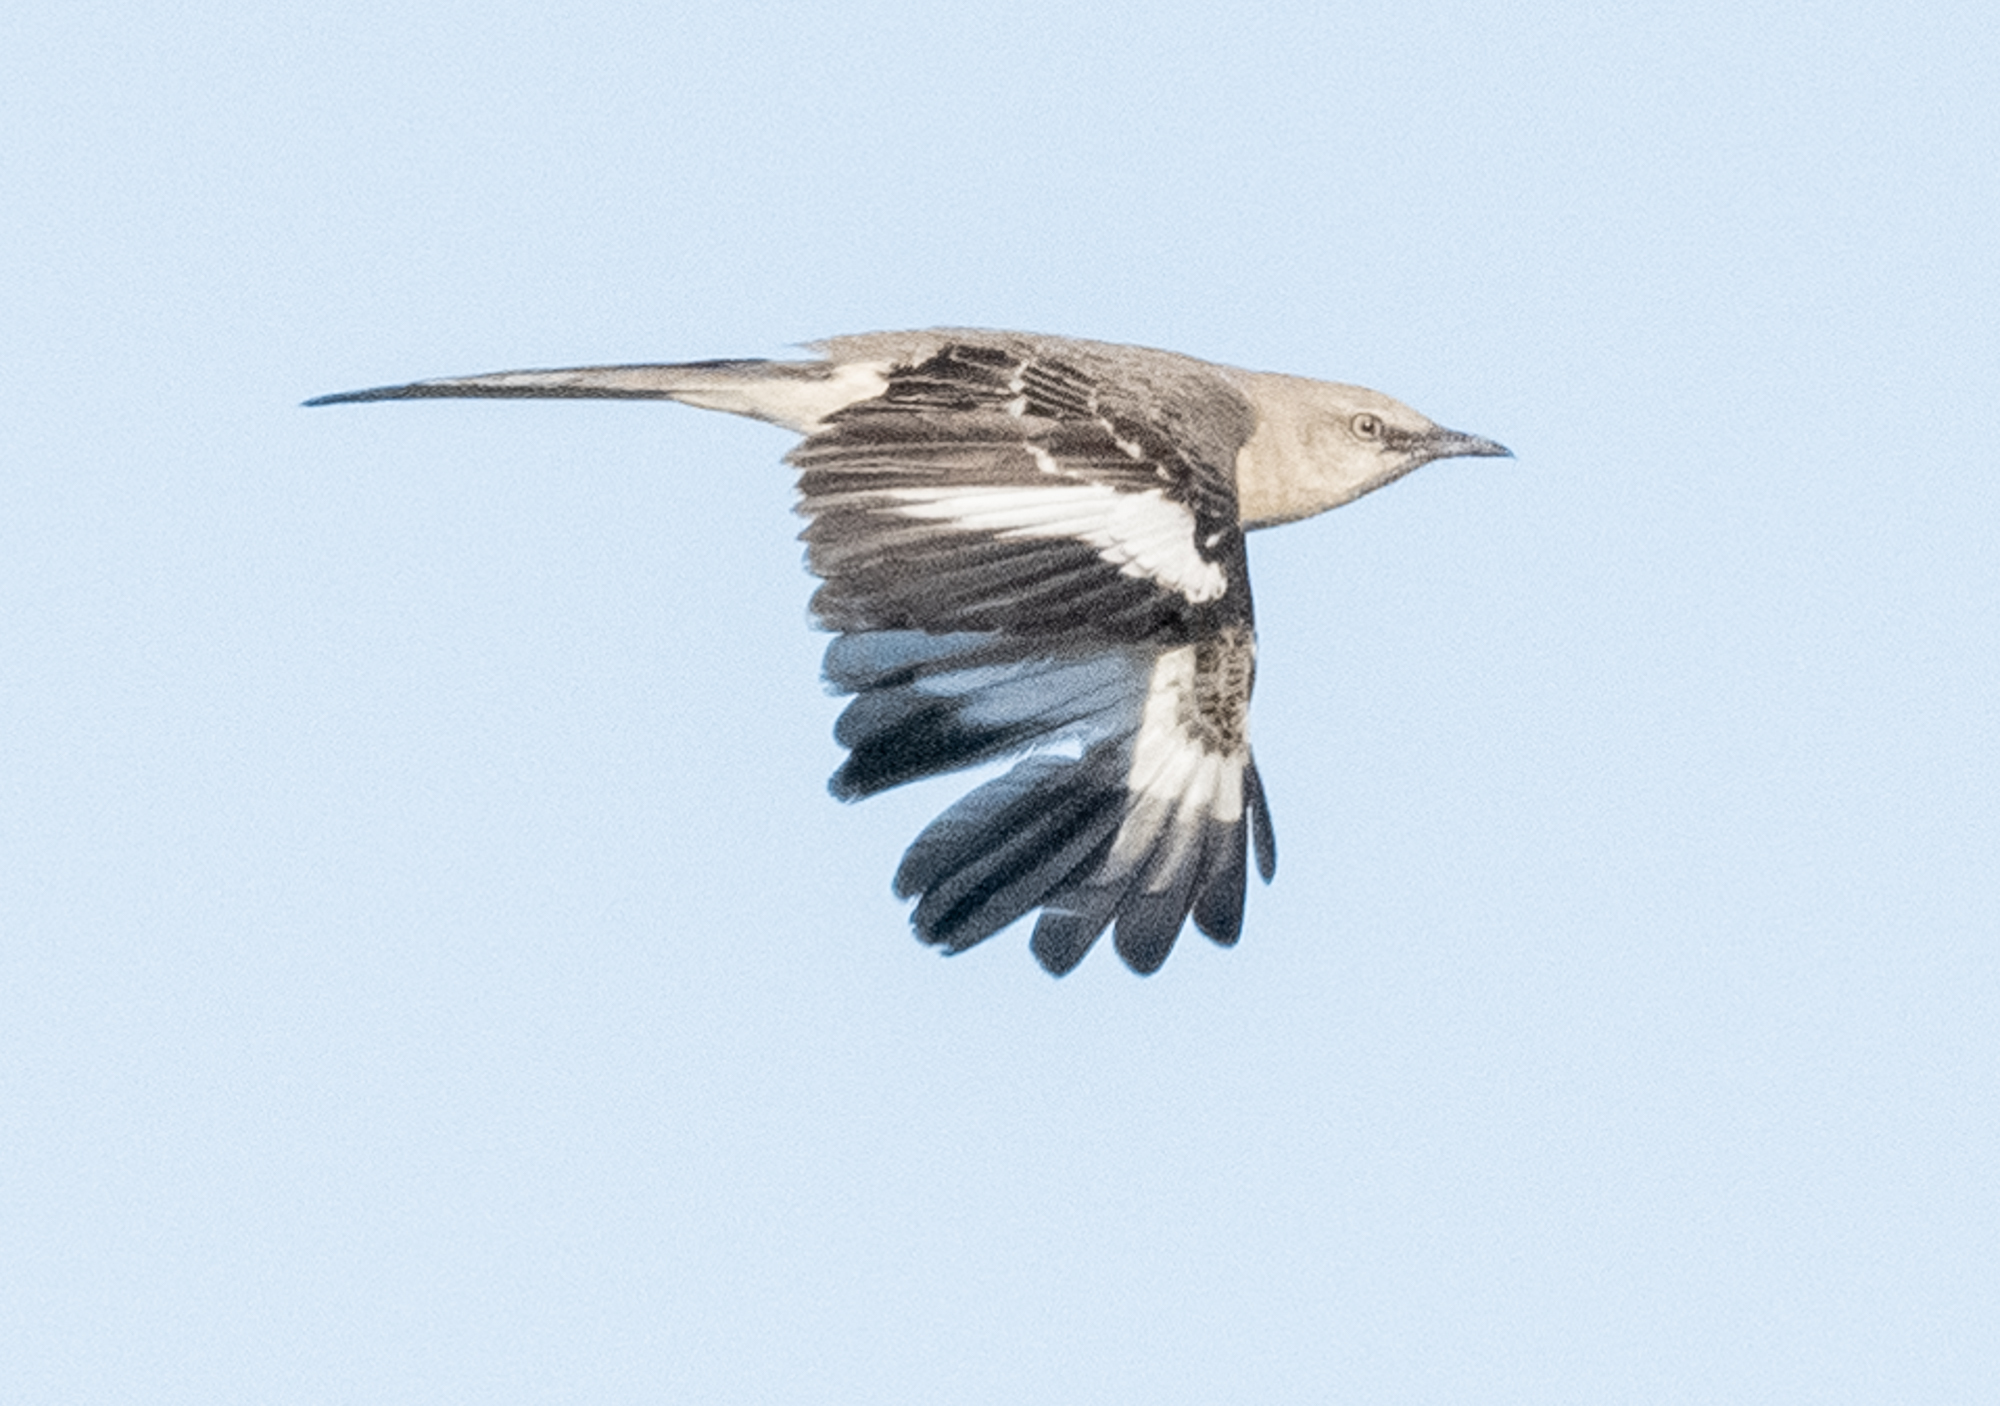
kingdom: Animalia
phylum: Chordata
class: Aves
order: Passeriformes
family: Mimidae
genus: Mimus
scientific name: Mimus polyglottos
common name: Northern mockingbird
